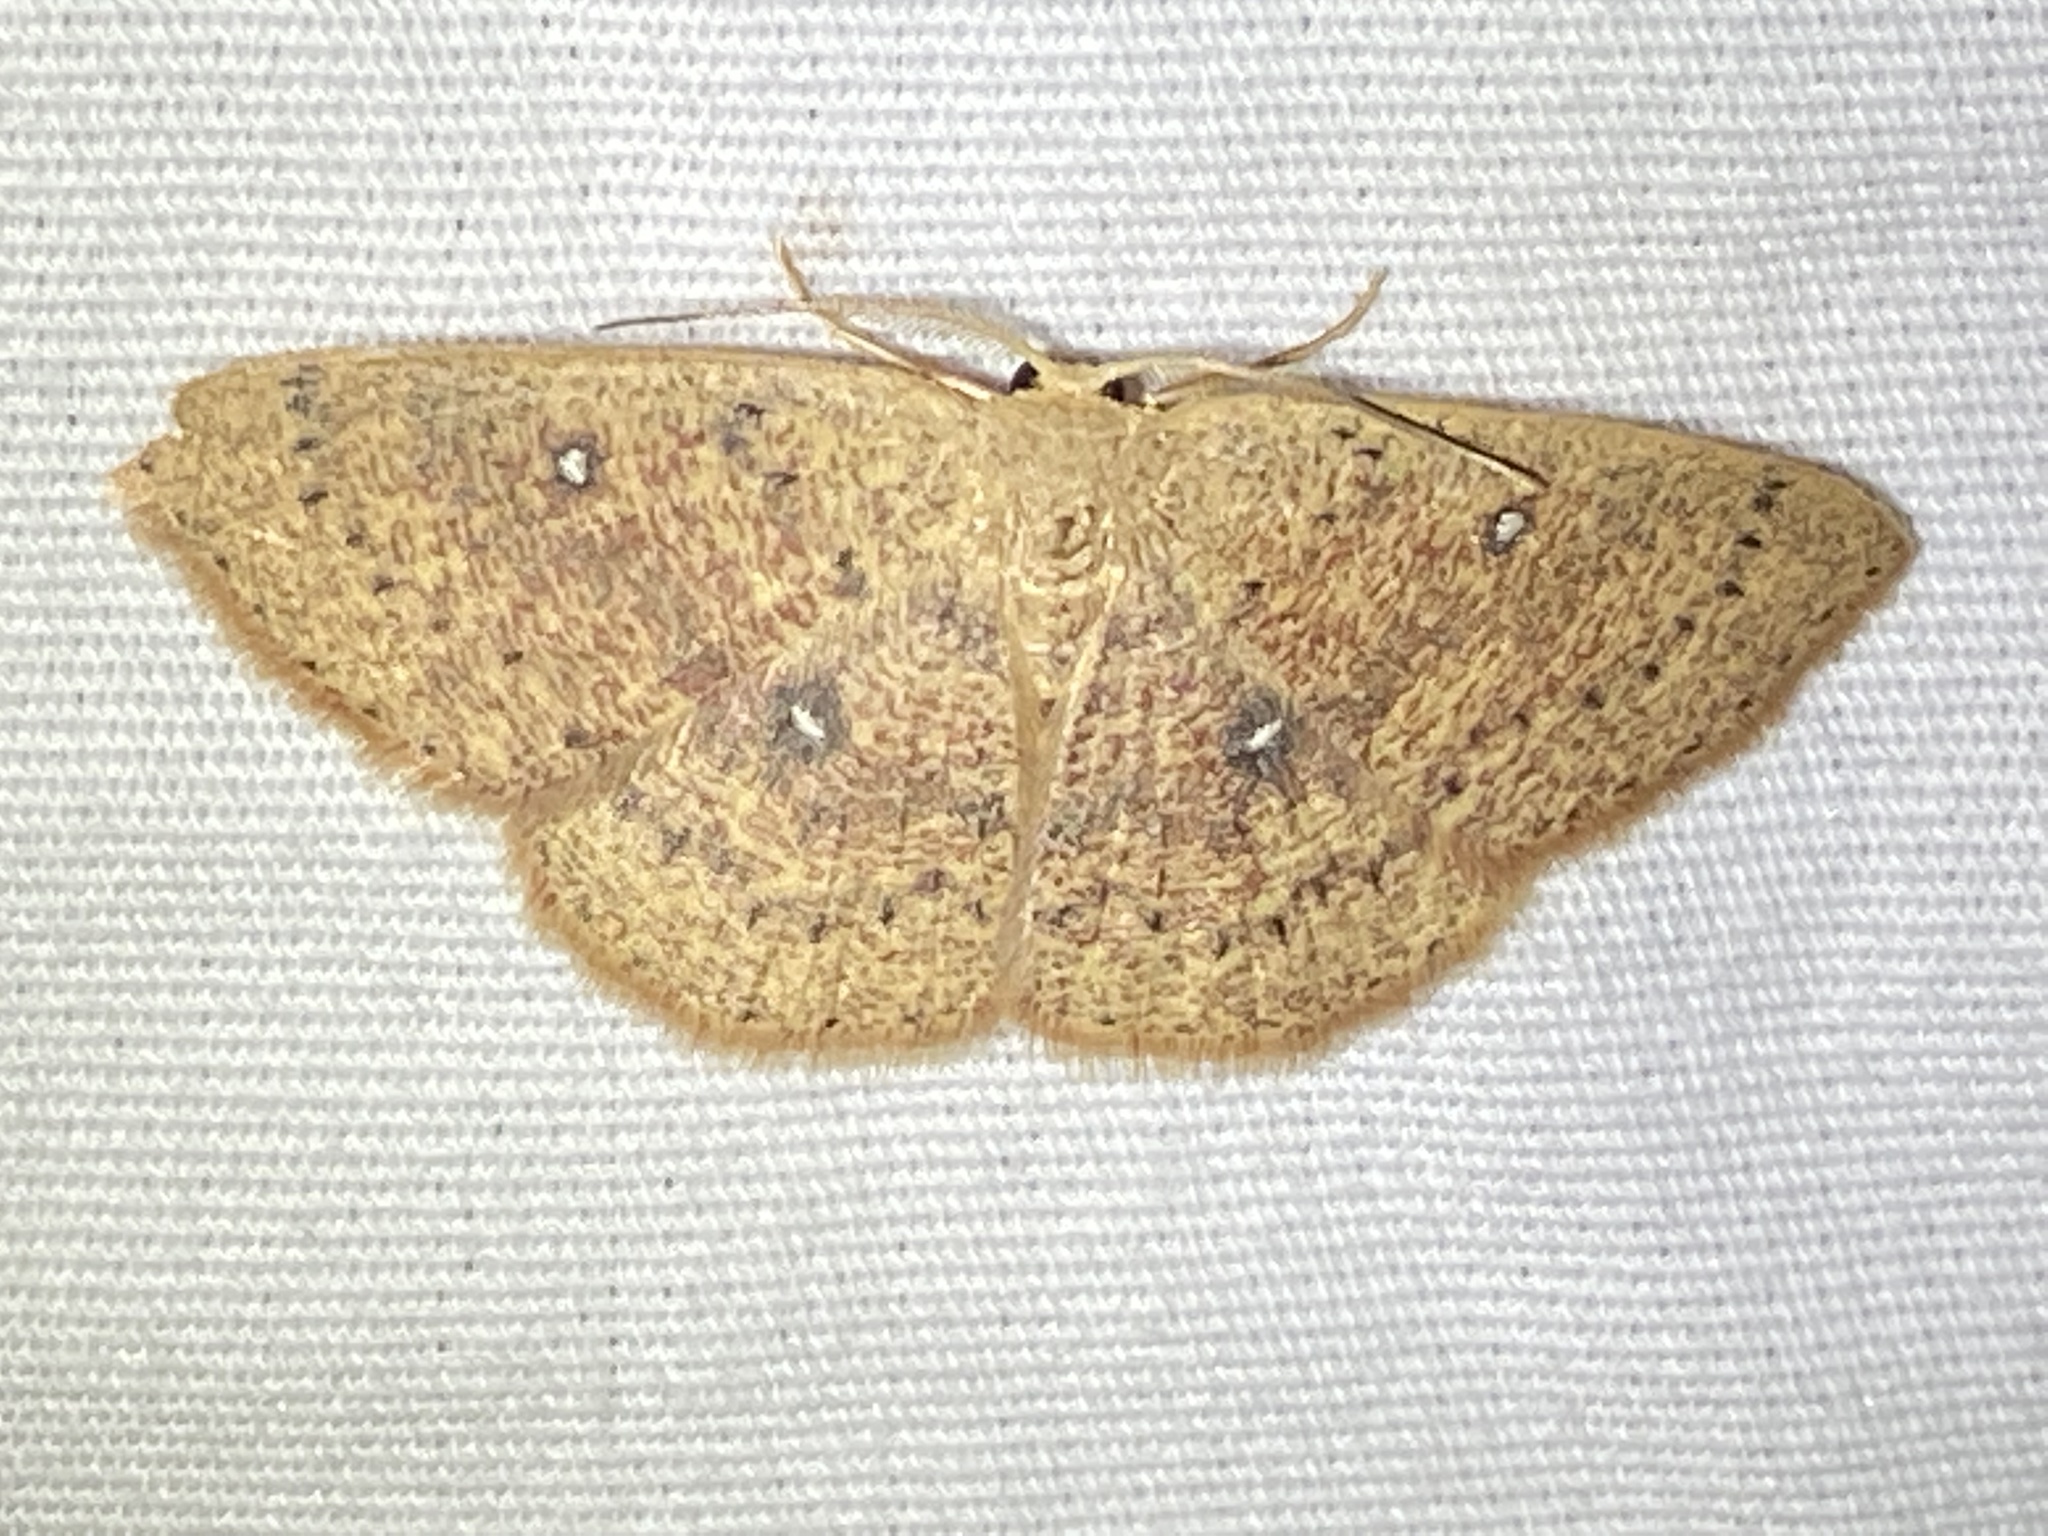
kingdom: Animalia
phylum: Arthropoda
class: Insecta
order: Lepidoptera
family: Geometridae
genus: Cyclophora
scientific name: Cyclophora packardi
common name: Packard's wave
